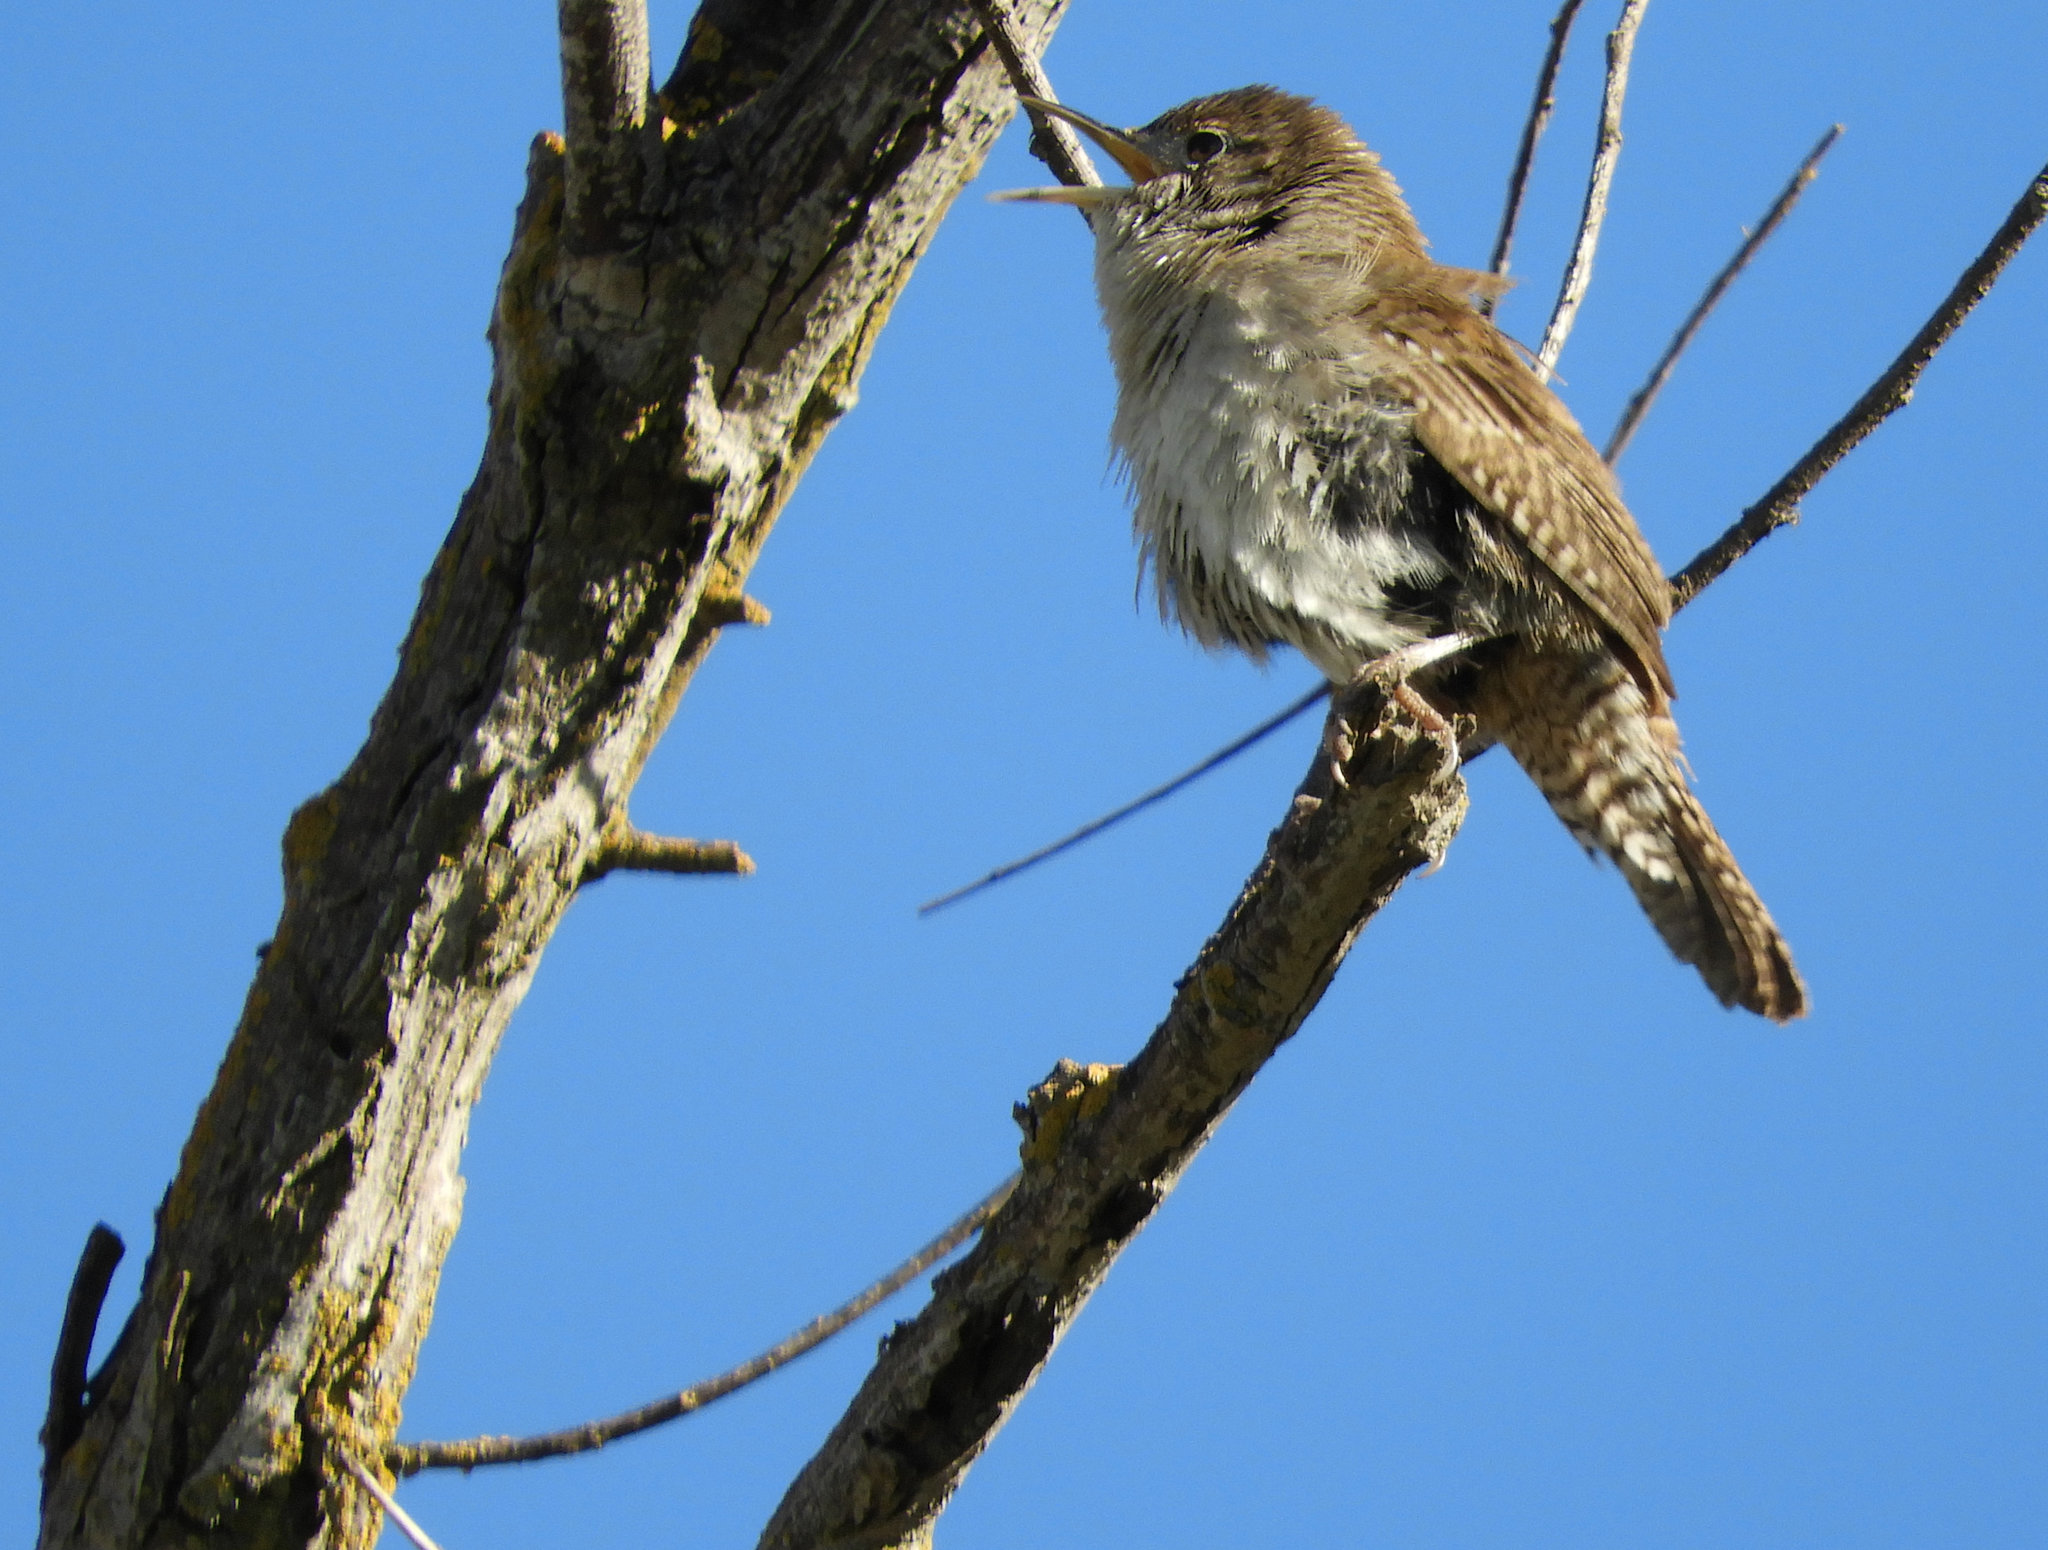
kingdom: Animalia
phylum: Chordata
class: Aves
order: Passeriformes
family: Troglodytidae
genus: Troglodytes
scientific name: Troglodytes aedon
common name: House wren
